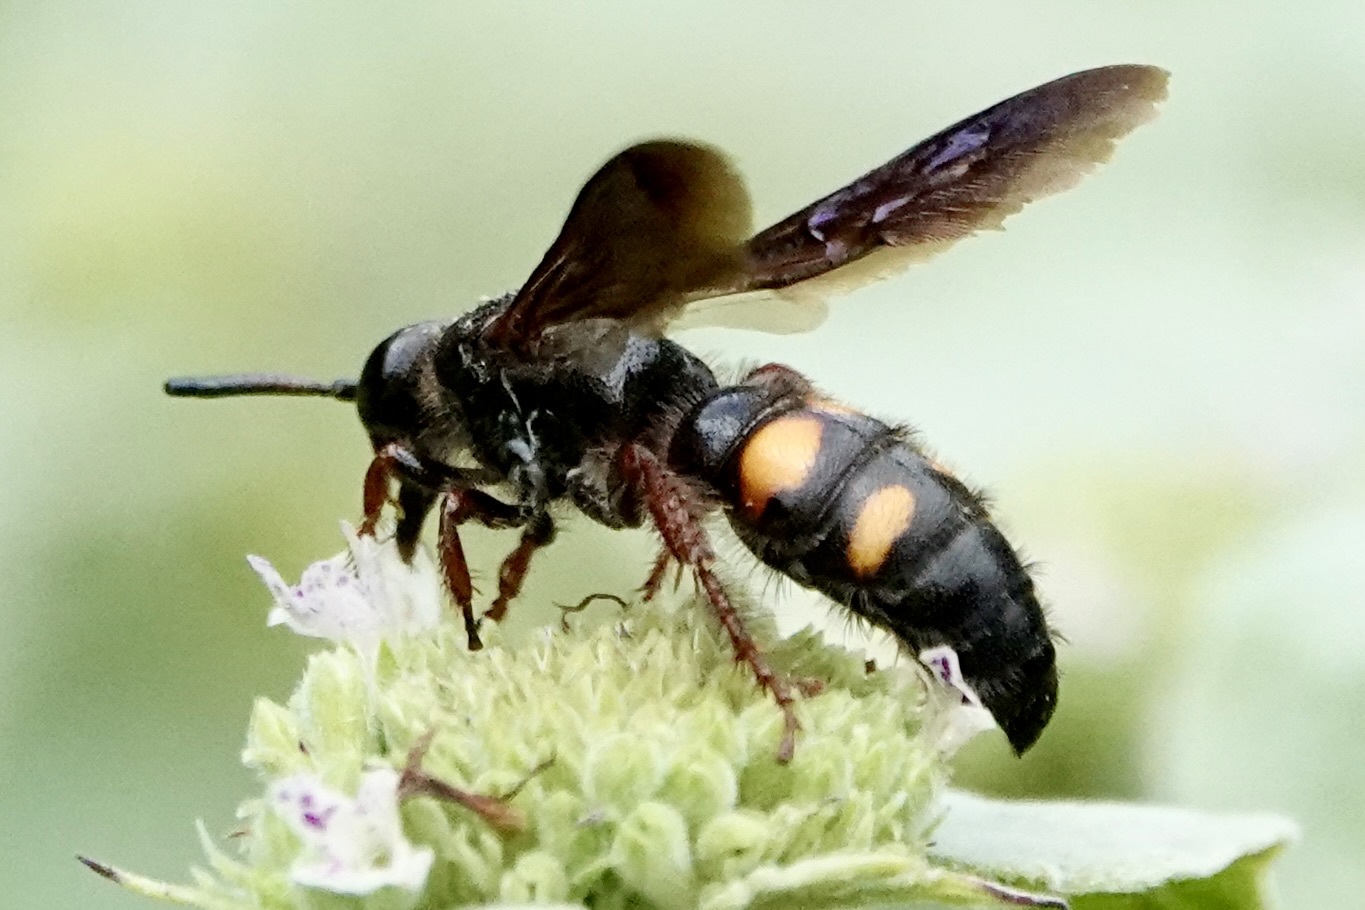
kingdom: Animalia
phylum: Arthropoda
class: Insecta
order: Hymenoptera
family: Scoliidae
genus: Scolia
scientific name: Scolia nobilitata
